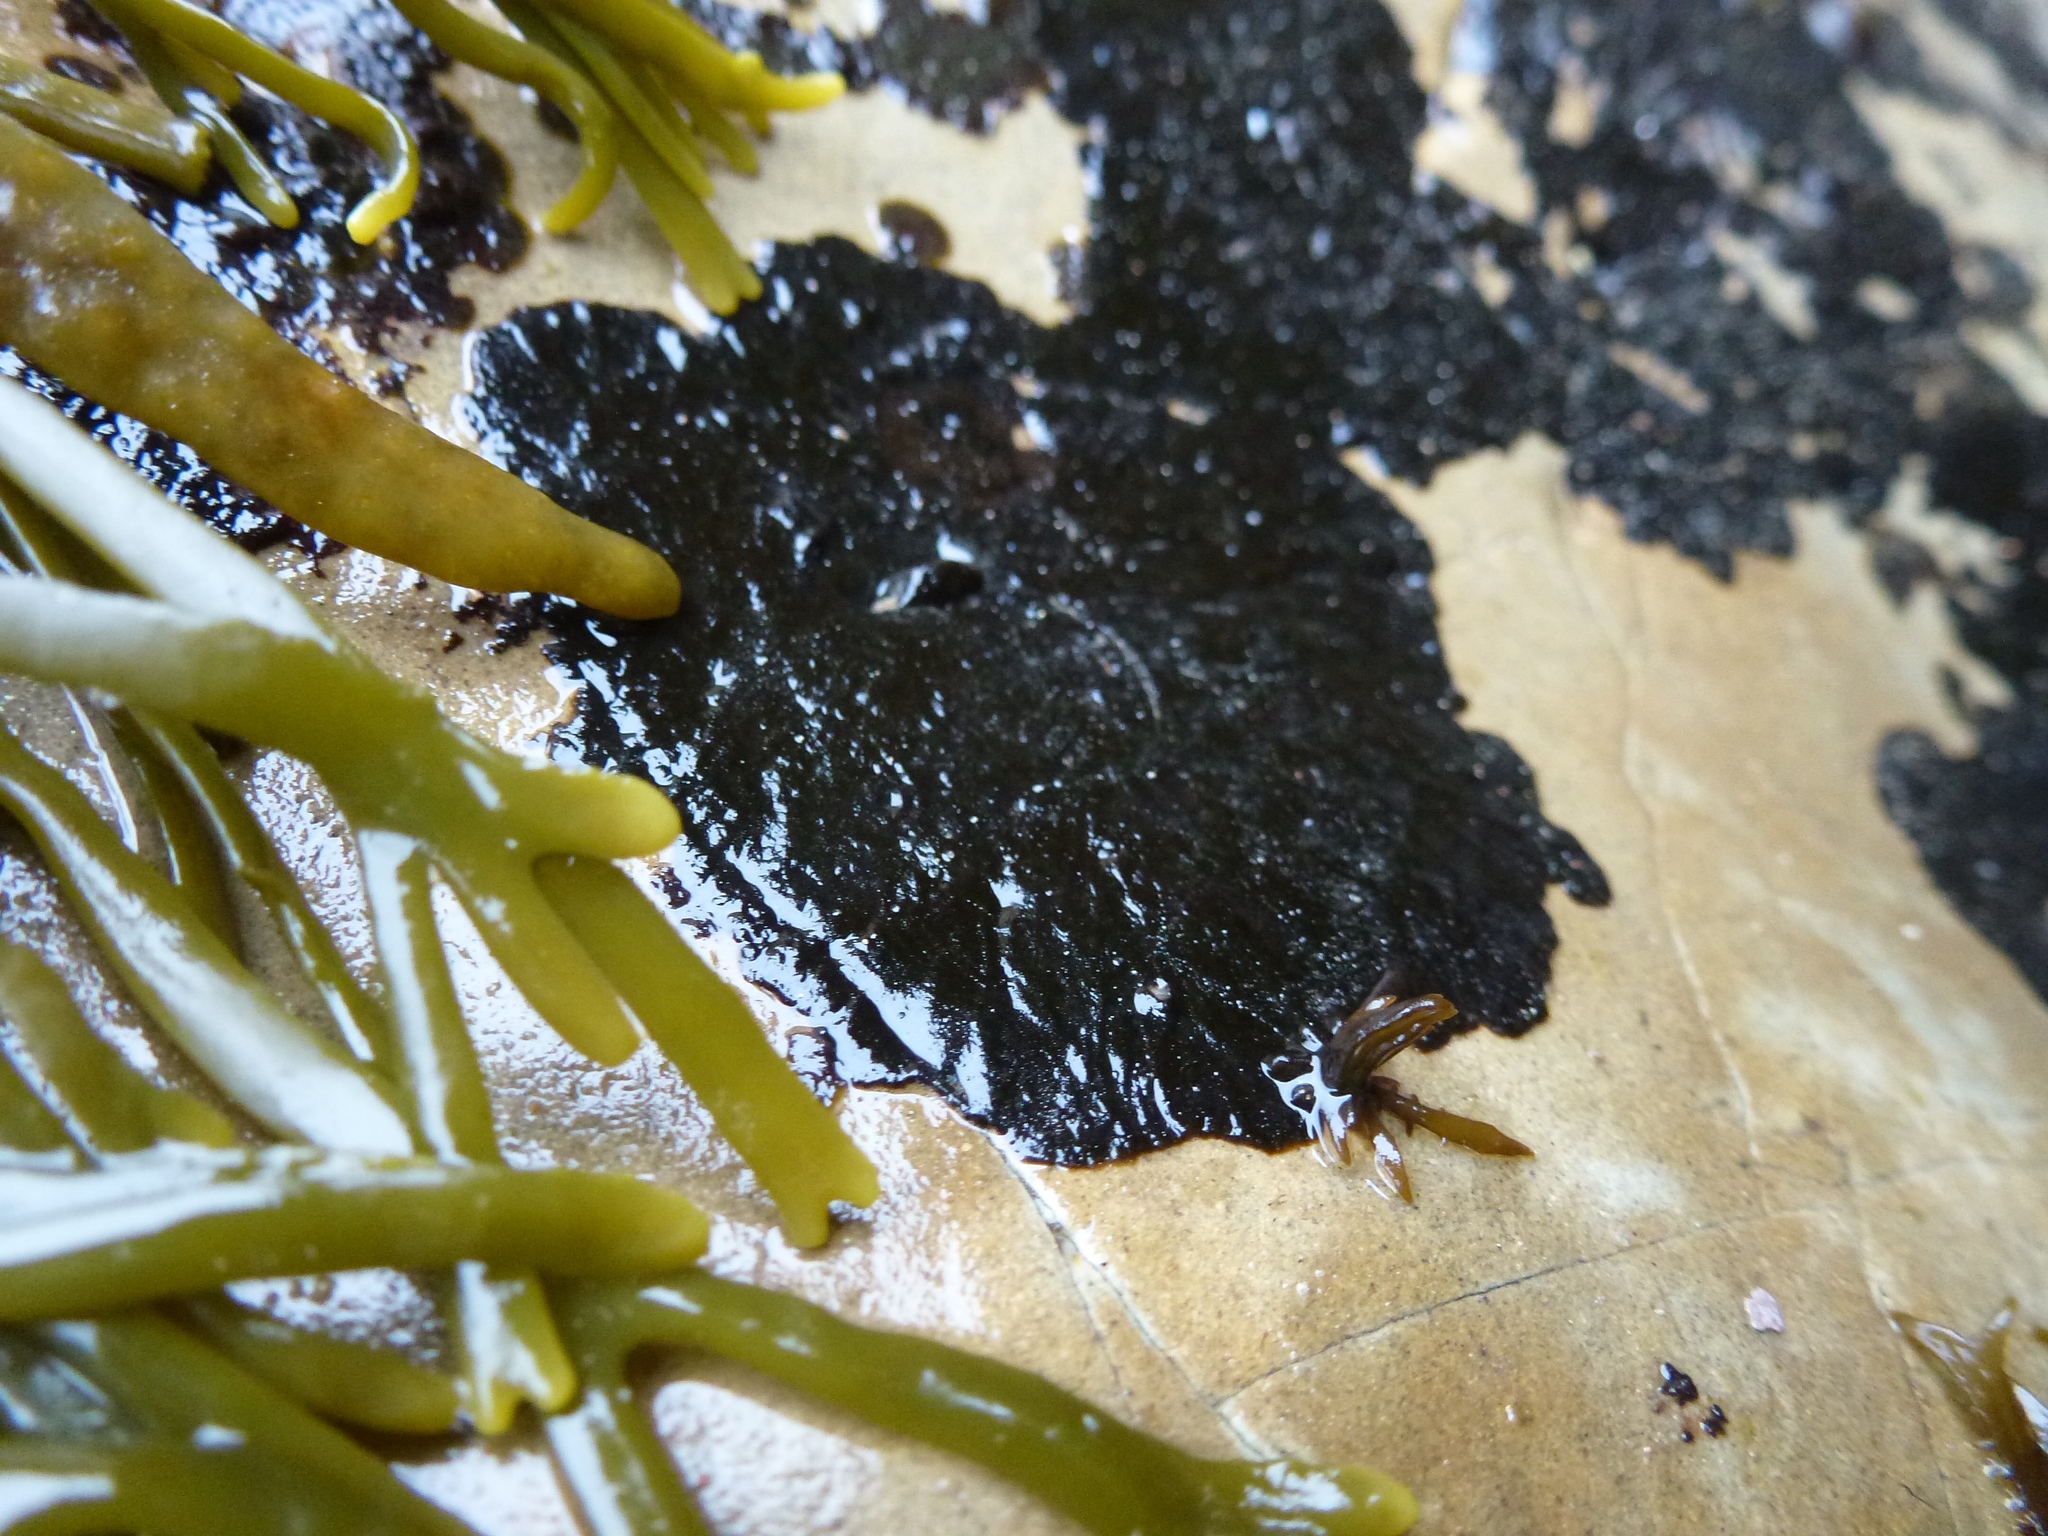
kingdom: Chromista
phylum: Ochrophyta
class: Phaeophyceae
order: Ralfsiales
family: Ralfsiaceae
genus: Pseudolithoderma
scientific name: Pseudolithoderma nigra
